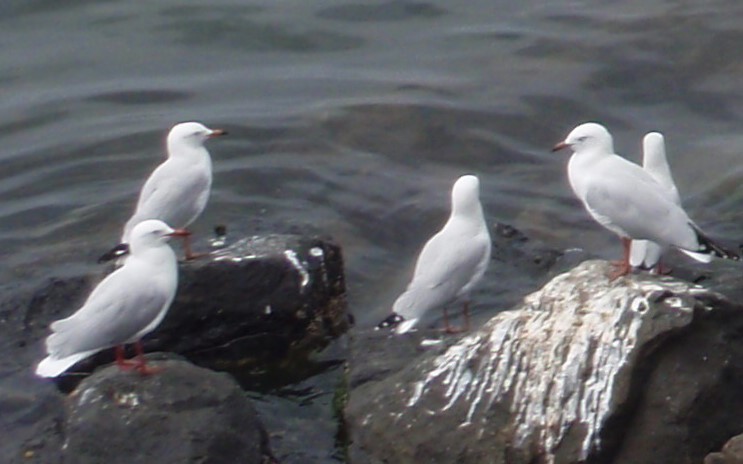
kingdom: Animalia
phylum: Chordata
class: Aves
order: Charadriiformes
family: Laridae
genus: Chroicocephalus
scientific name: Chroicocephalus novaehollandiae
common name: Silver gull
